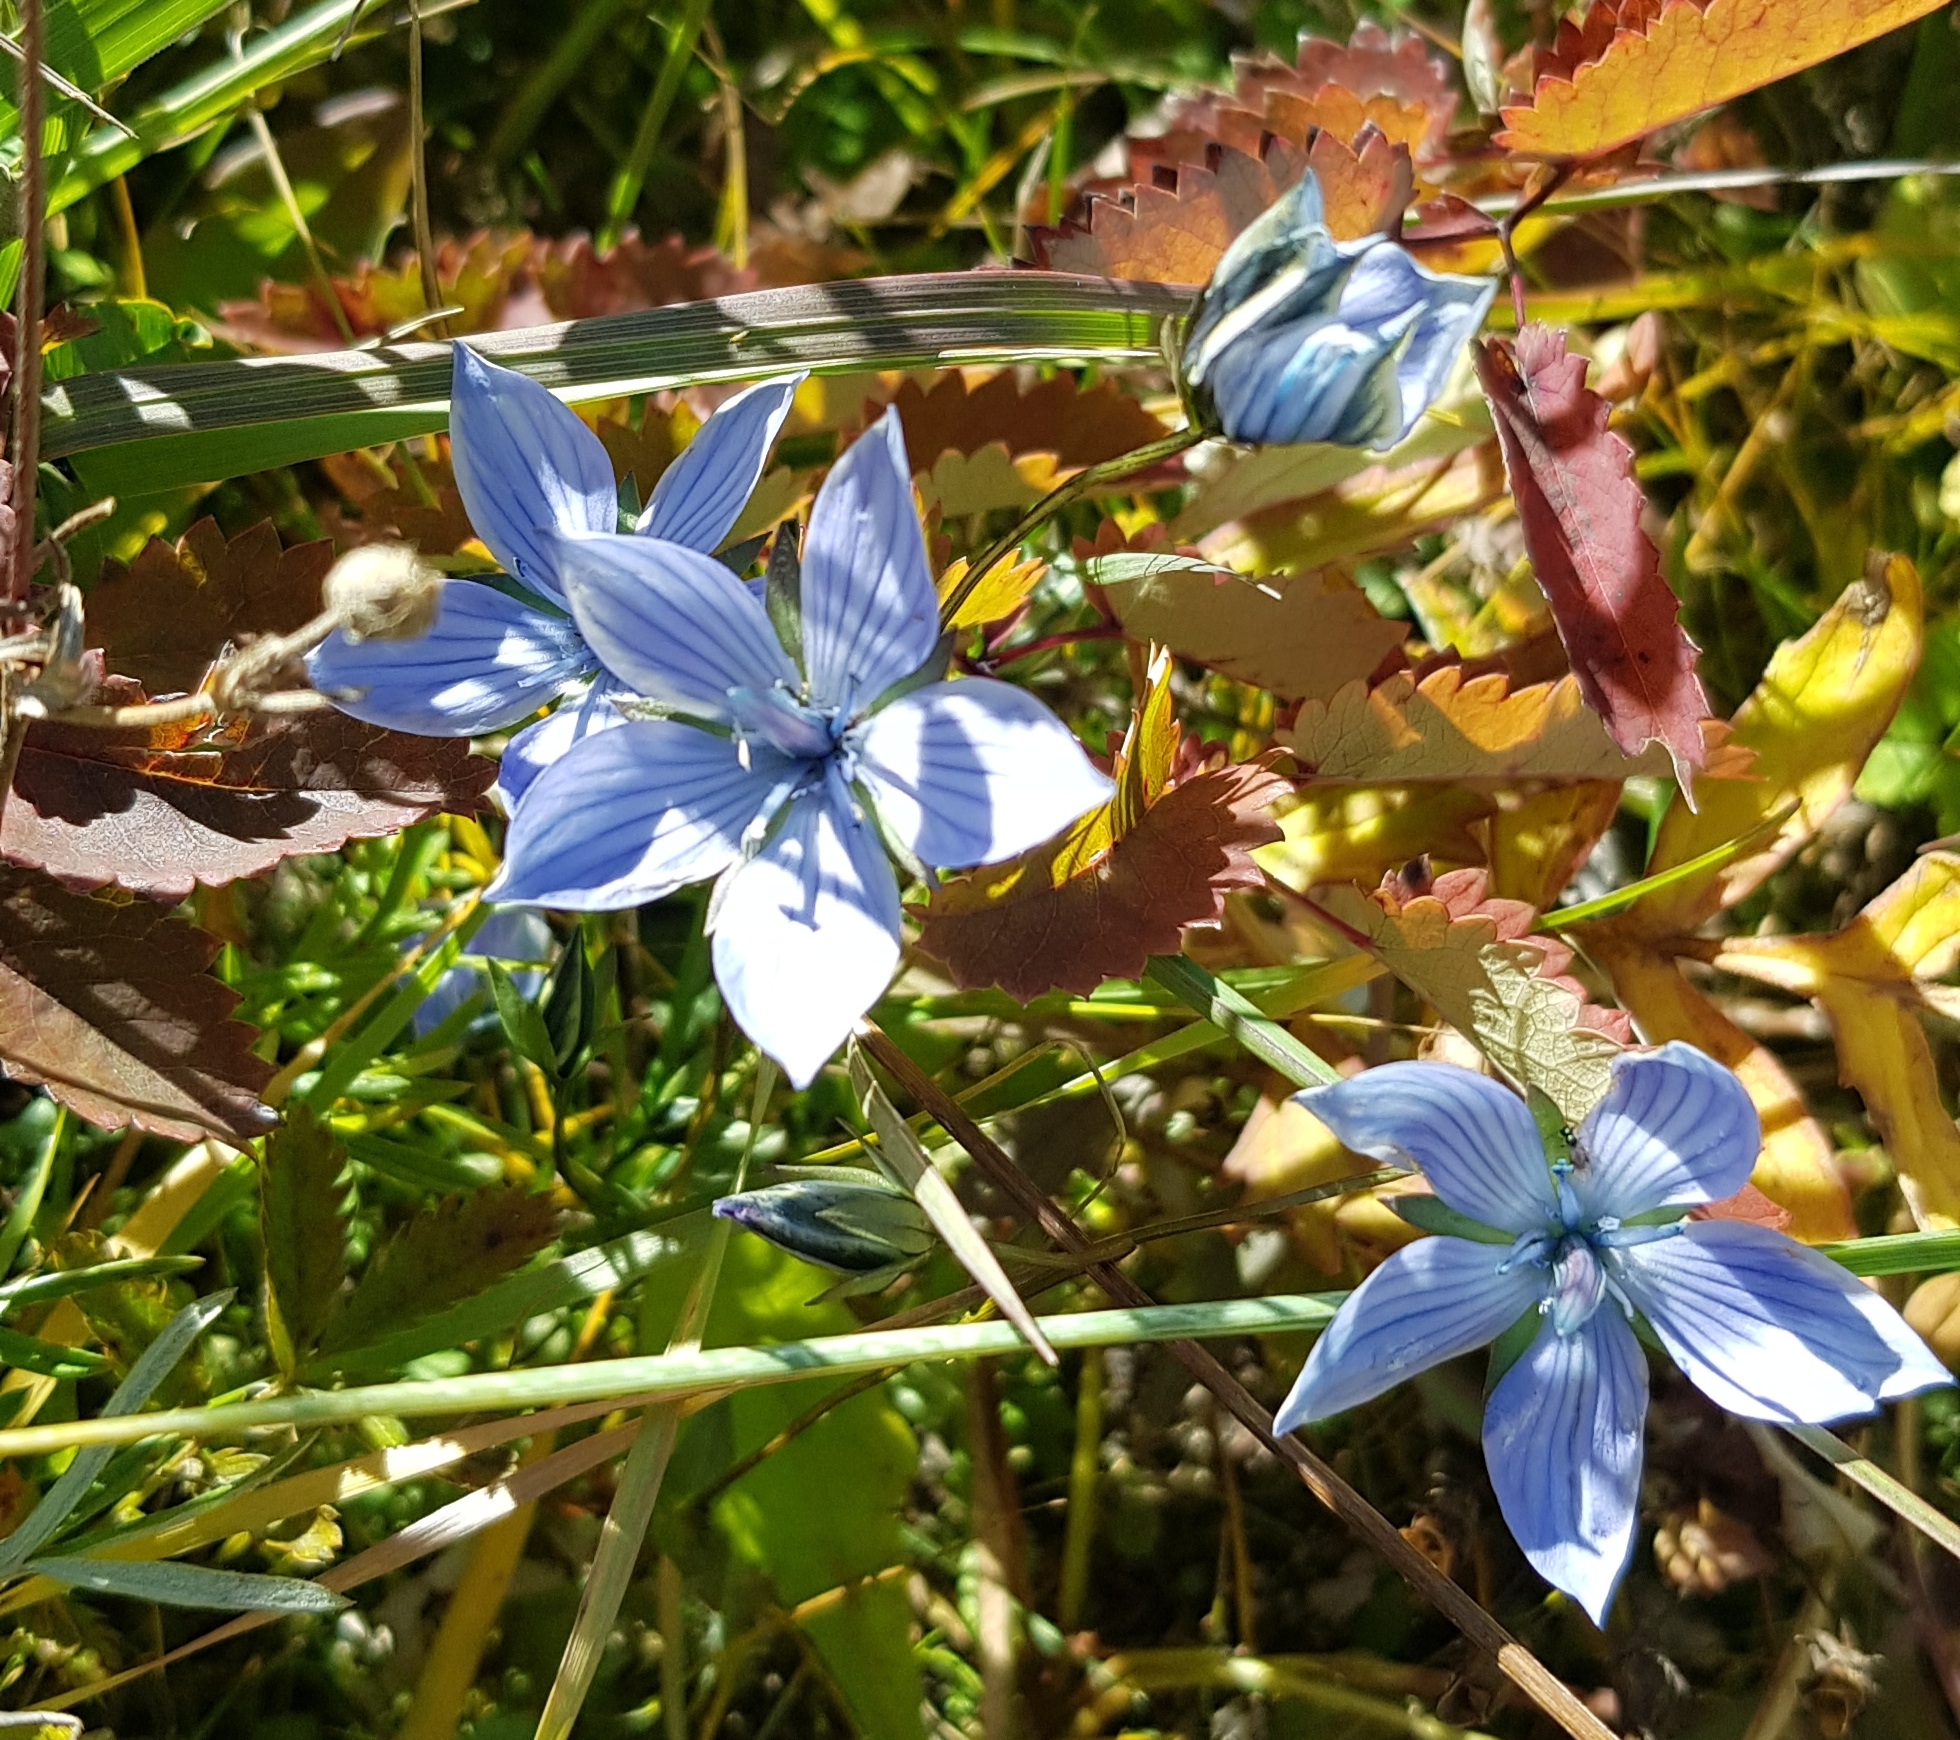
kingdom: Plantae
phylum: Tracheophyta
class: Magnoliopsida
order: Gentianales
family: Gentianaceae
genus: Lomatogonium
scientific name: Lomatogonium carinthiacum
